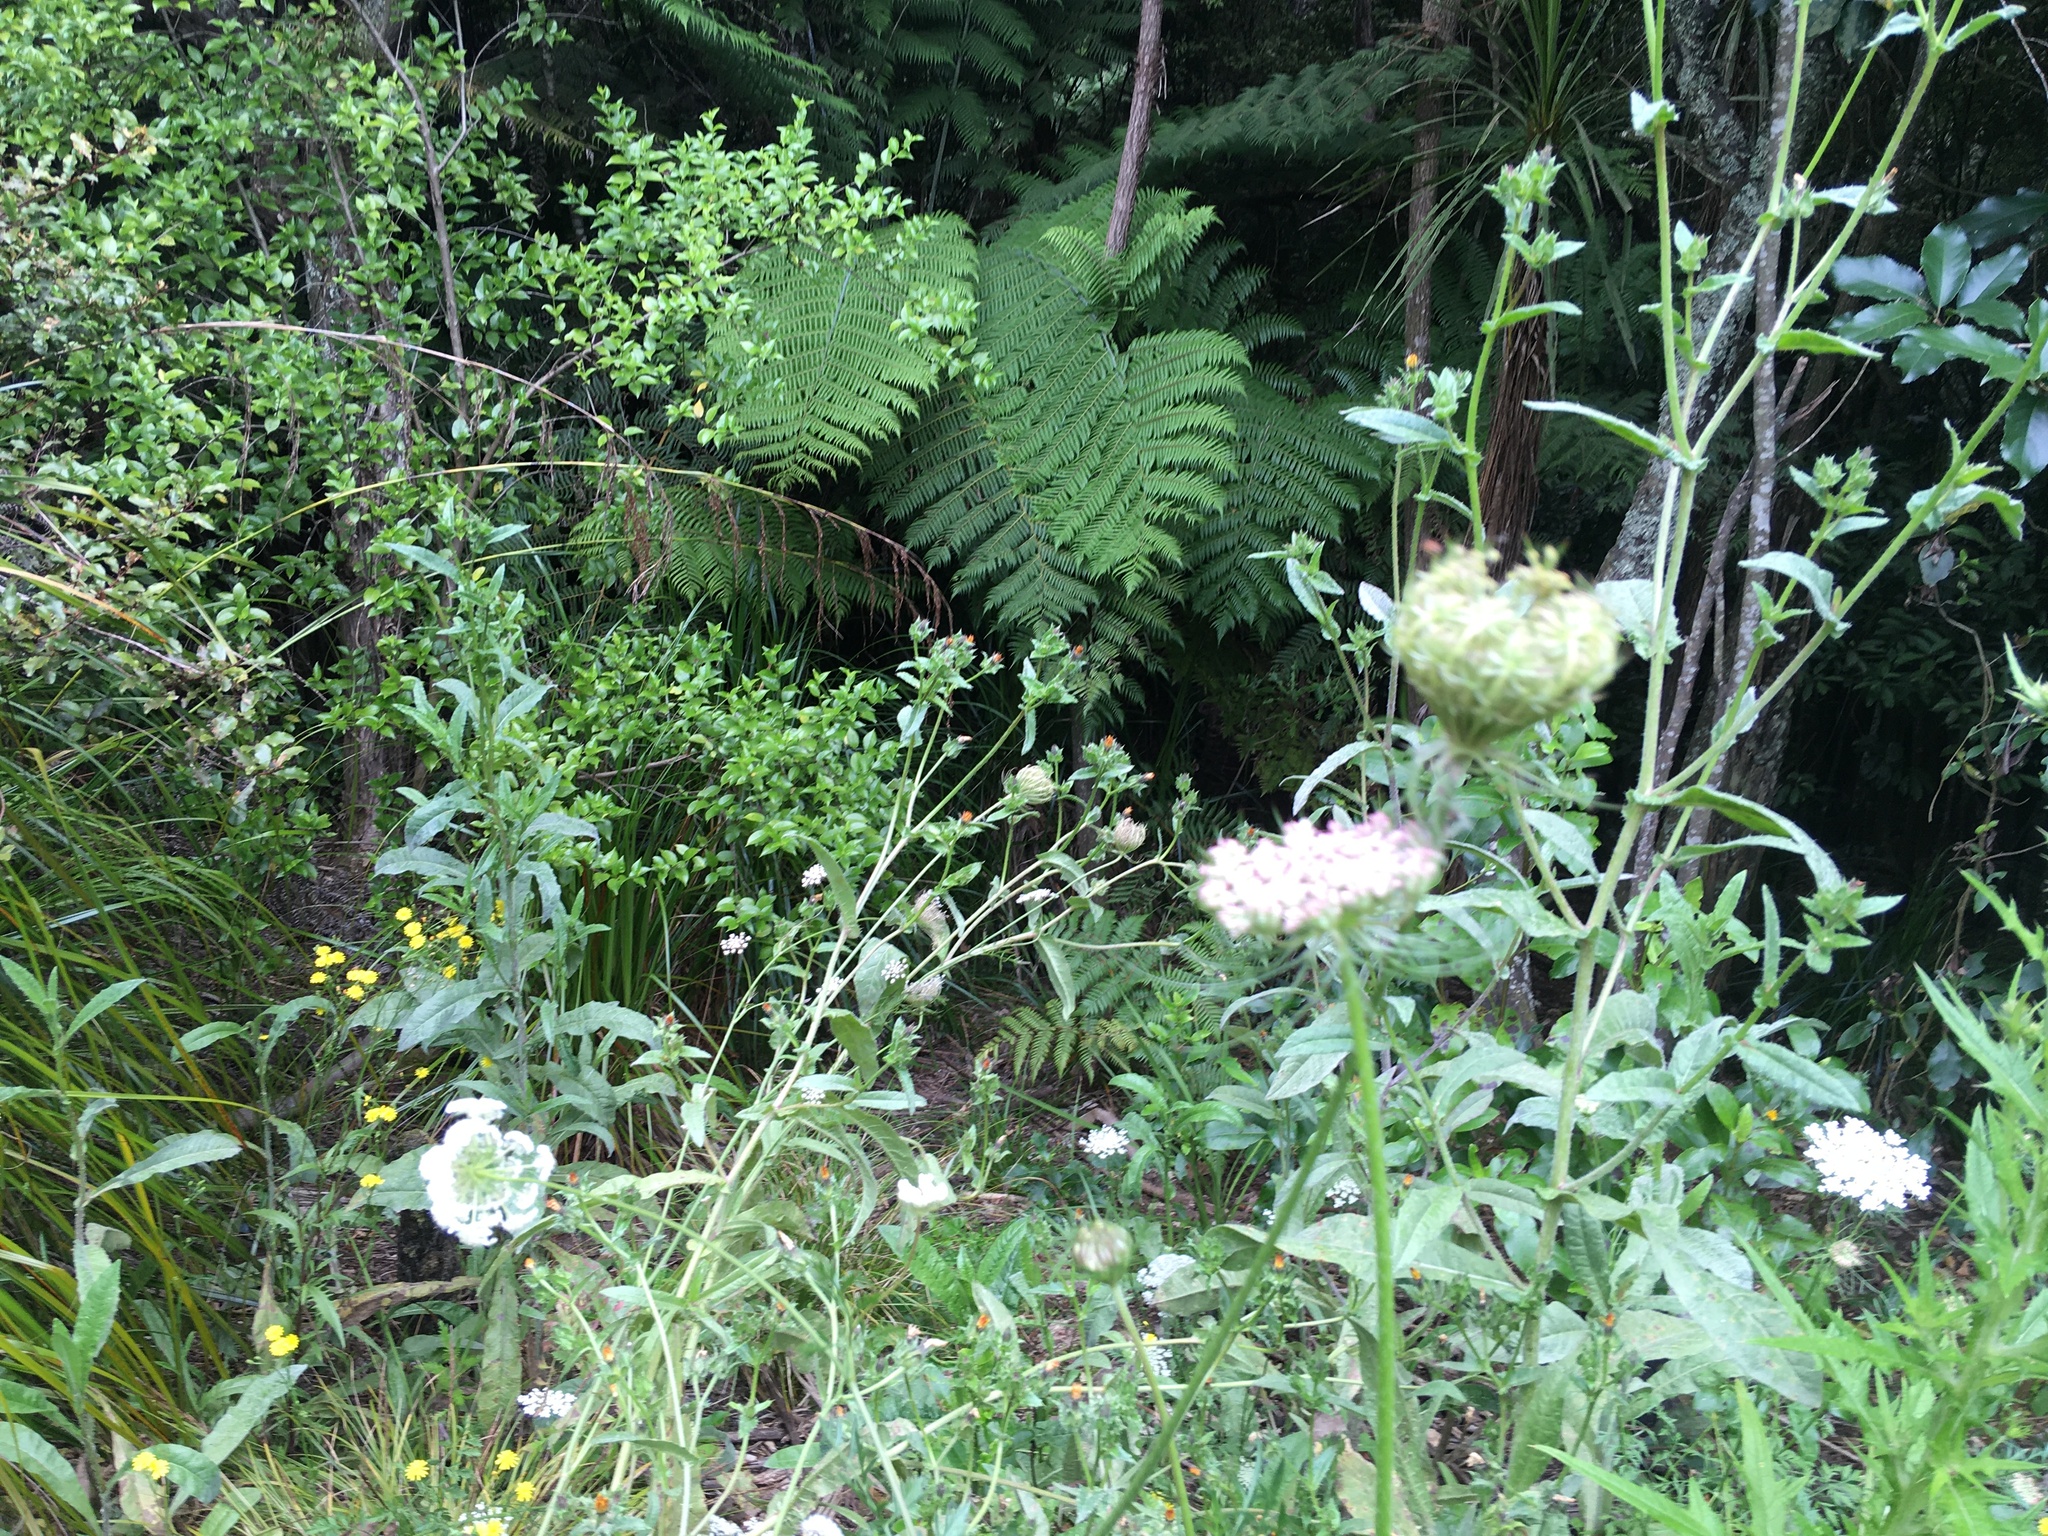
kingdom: Plantae
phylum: Tracheophyta
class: Magnoliopsida
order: Apiales
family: Apiaceae
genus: Daucus
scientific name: Daucus carota
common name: Wild carrot
